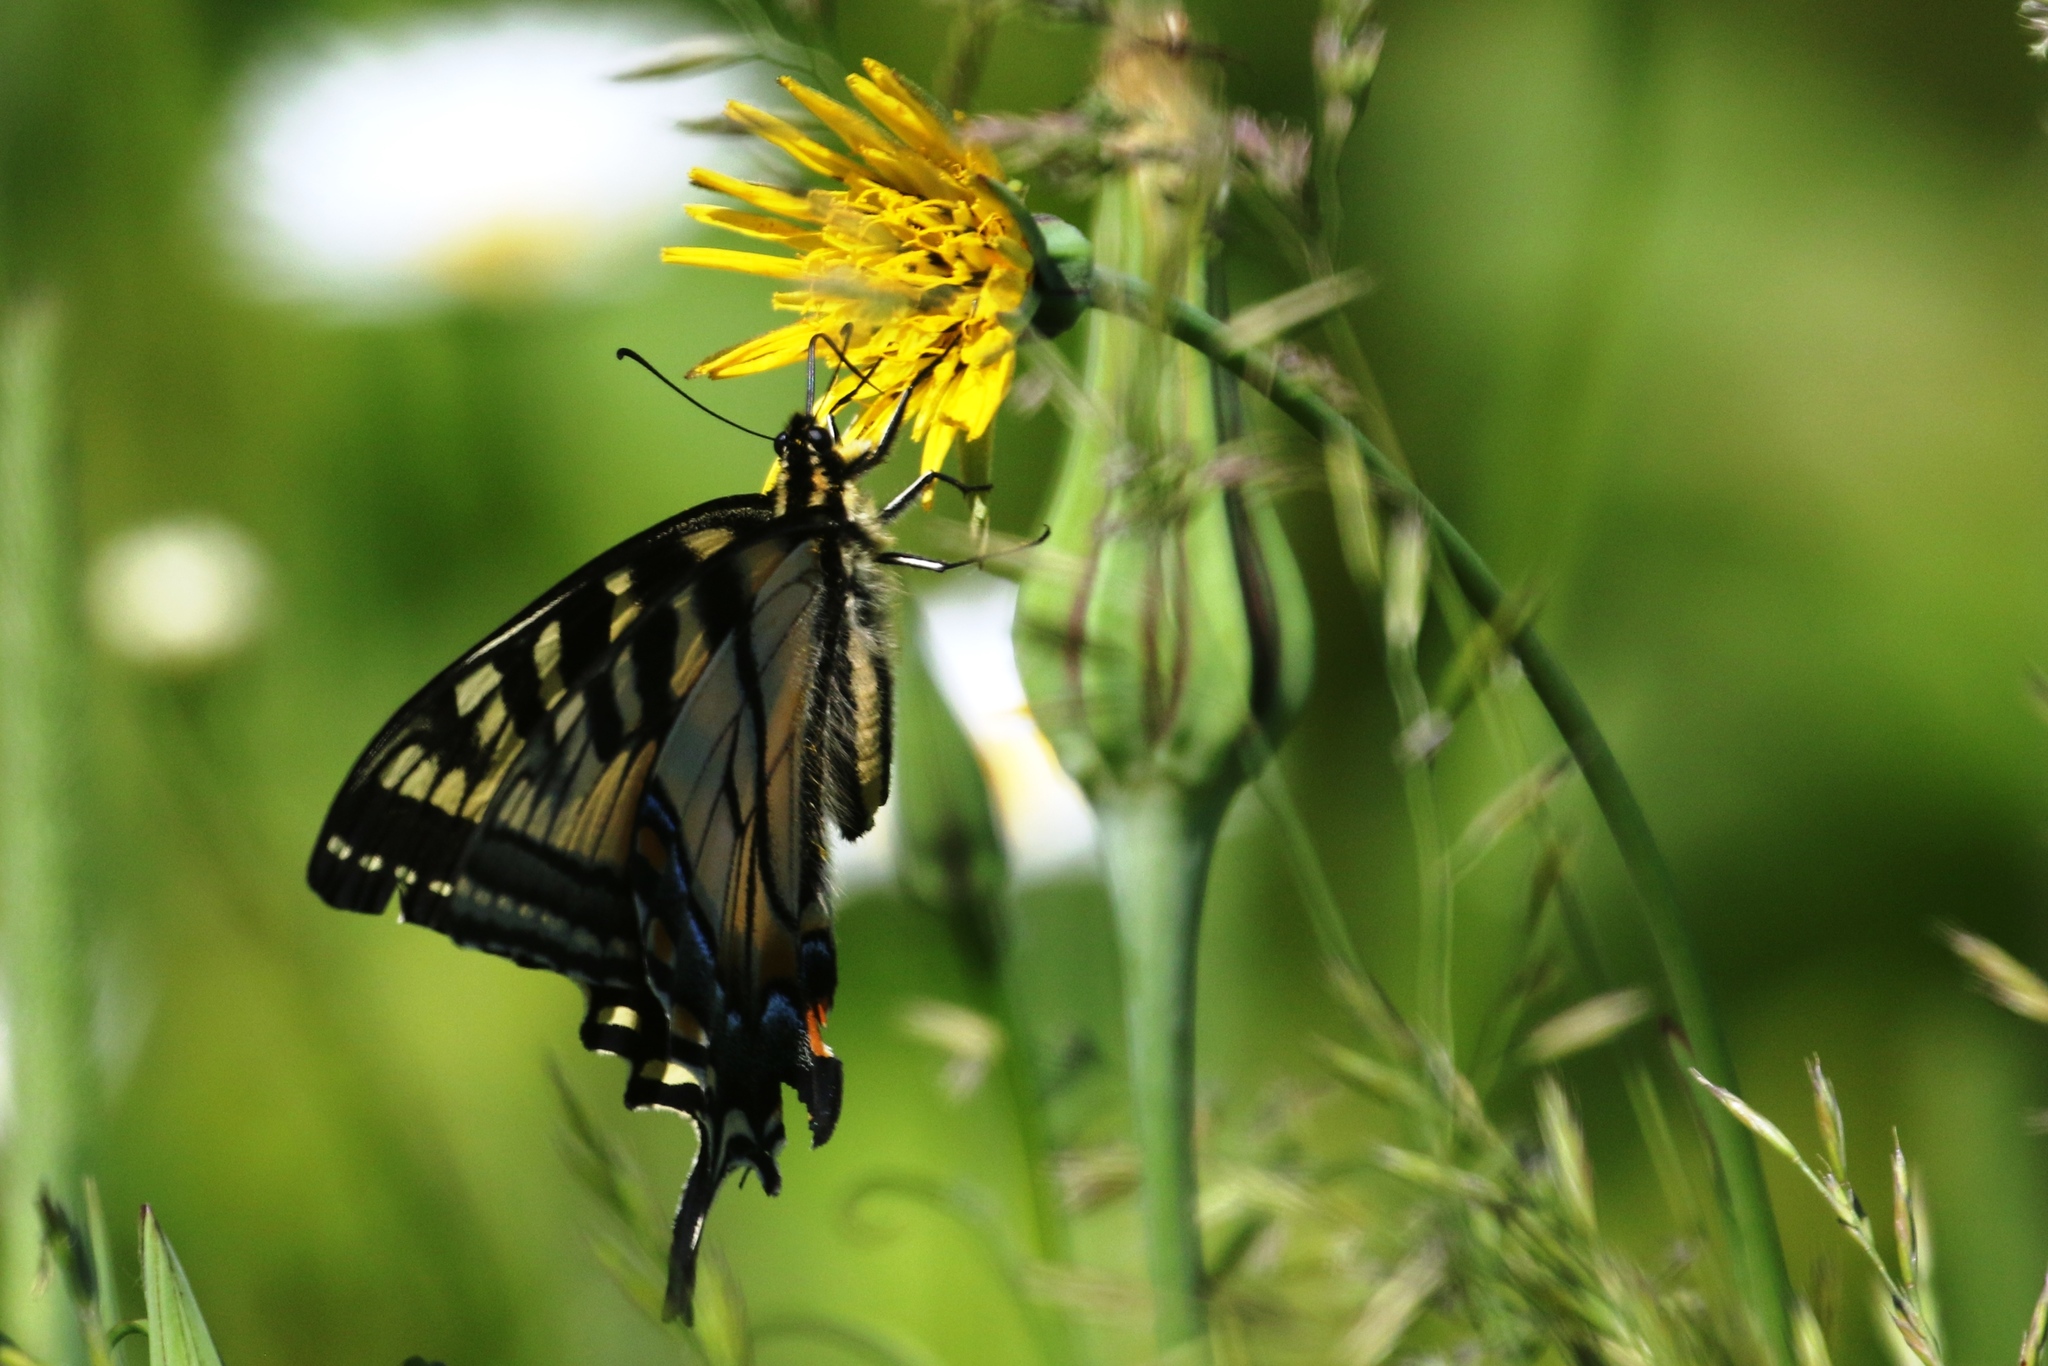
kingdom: Animalia
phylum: Arthropoda
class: Insecta
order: Lepidoptera
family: Papilionidae
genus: Papilio
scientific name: Papilio canadensis
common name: Canadian tiger swallowtail
